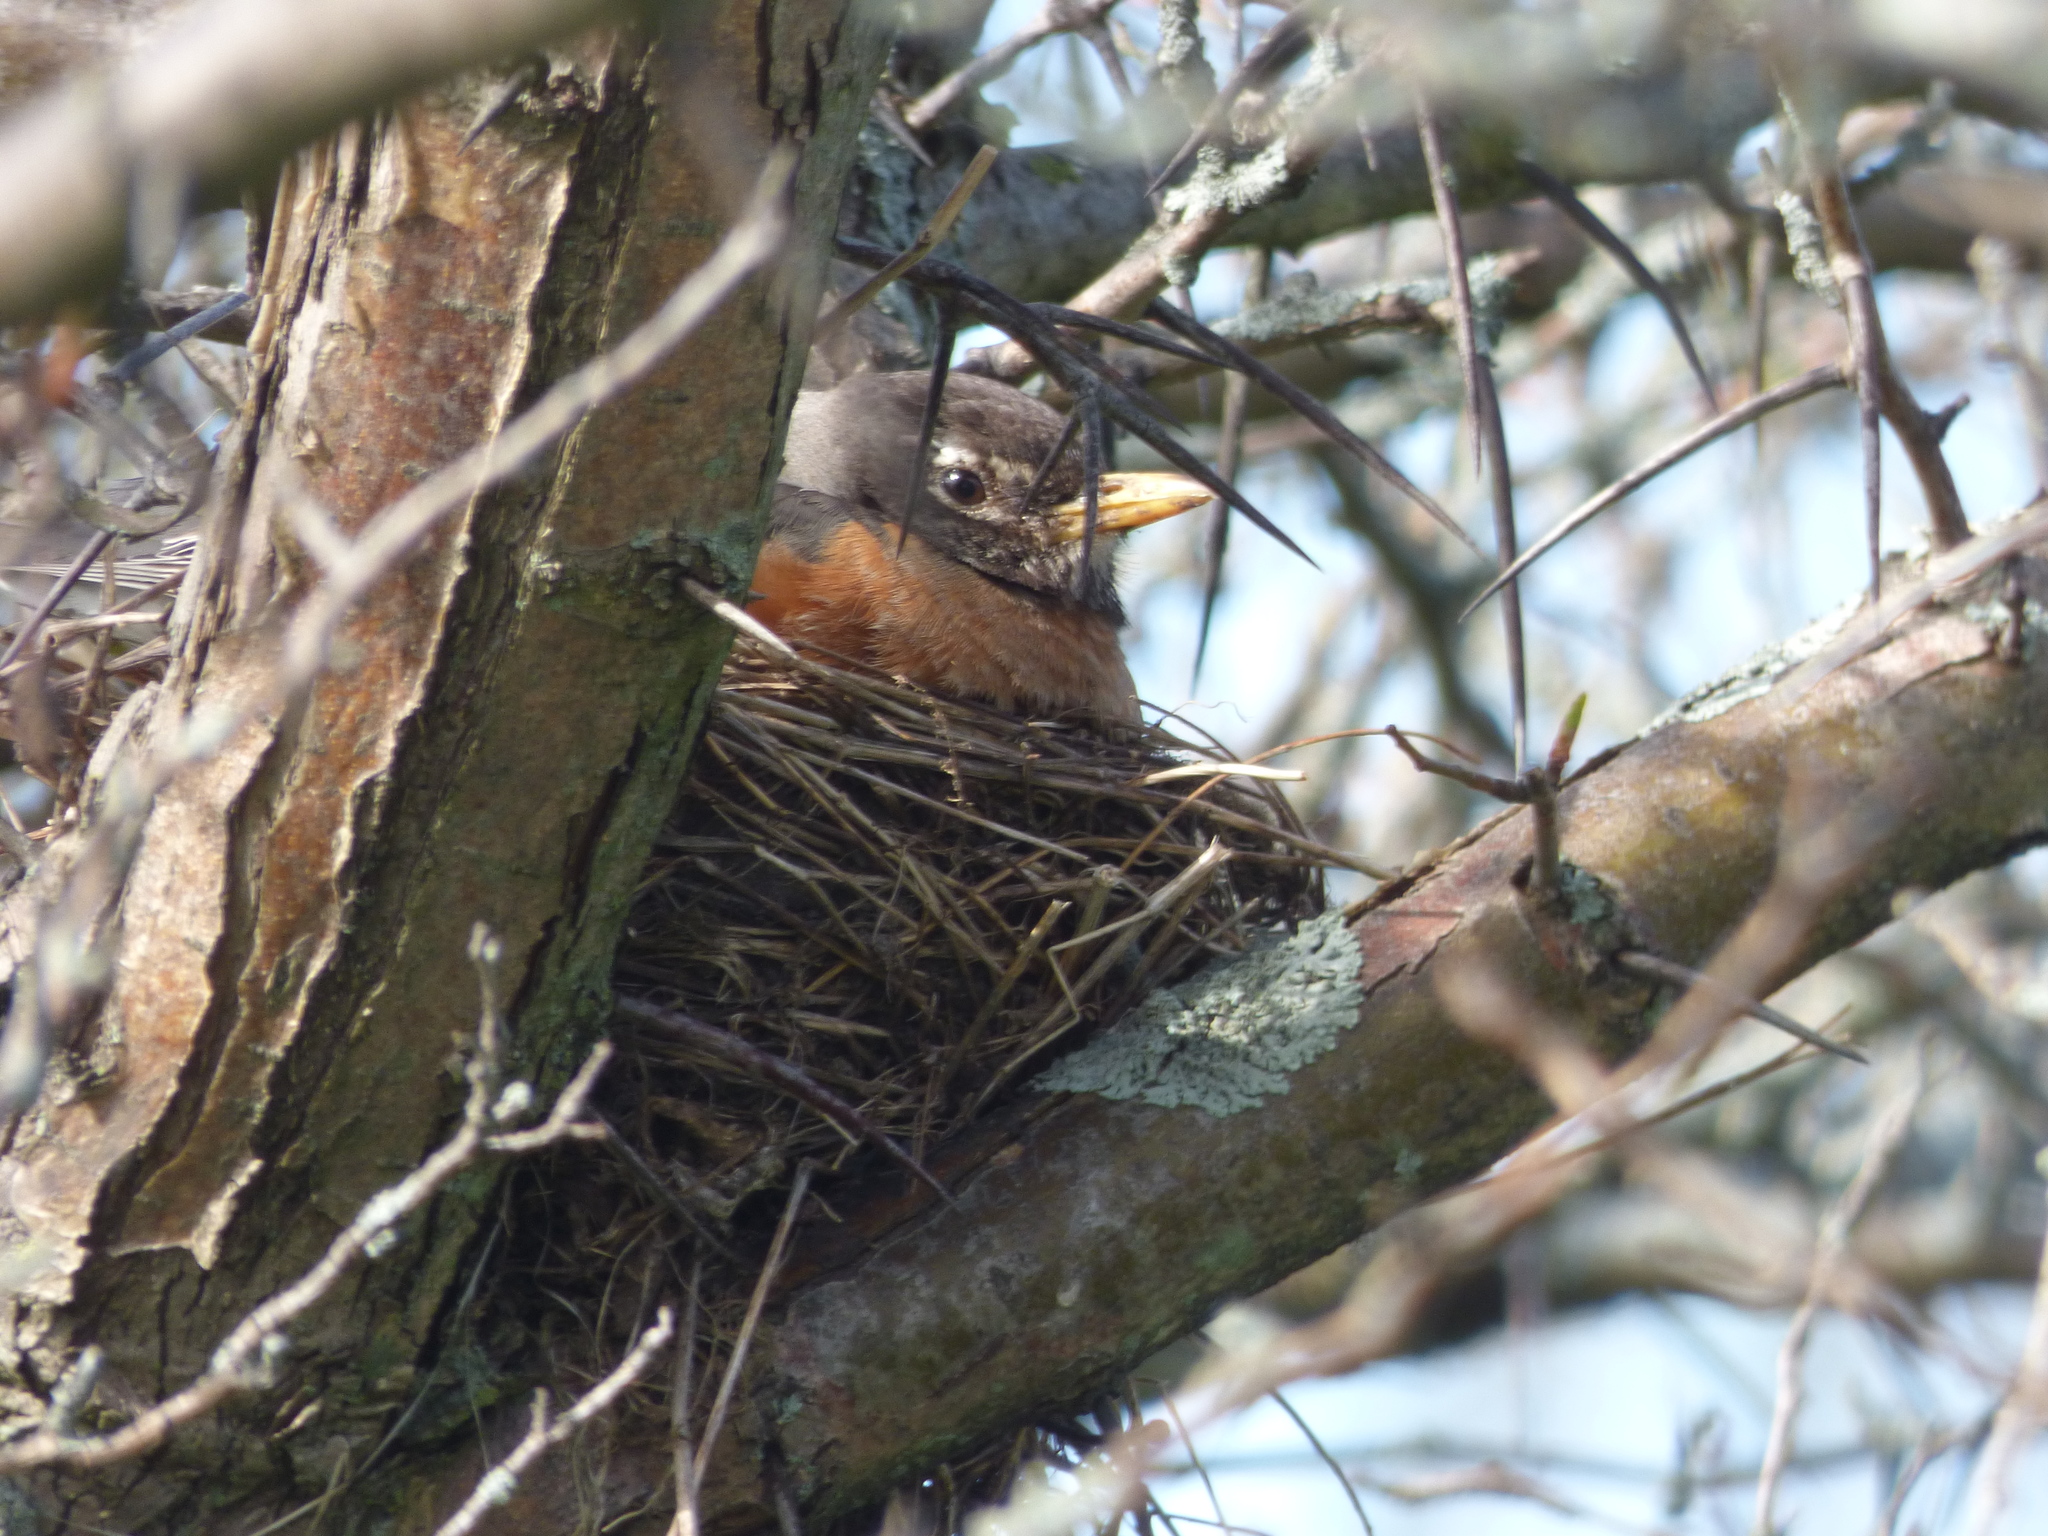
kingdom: Animalia
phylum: Chordata
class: Aves
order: Passeriformes
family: Turdidae
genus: Turdus
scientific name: Turdus migratorius
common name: American robin
